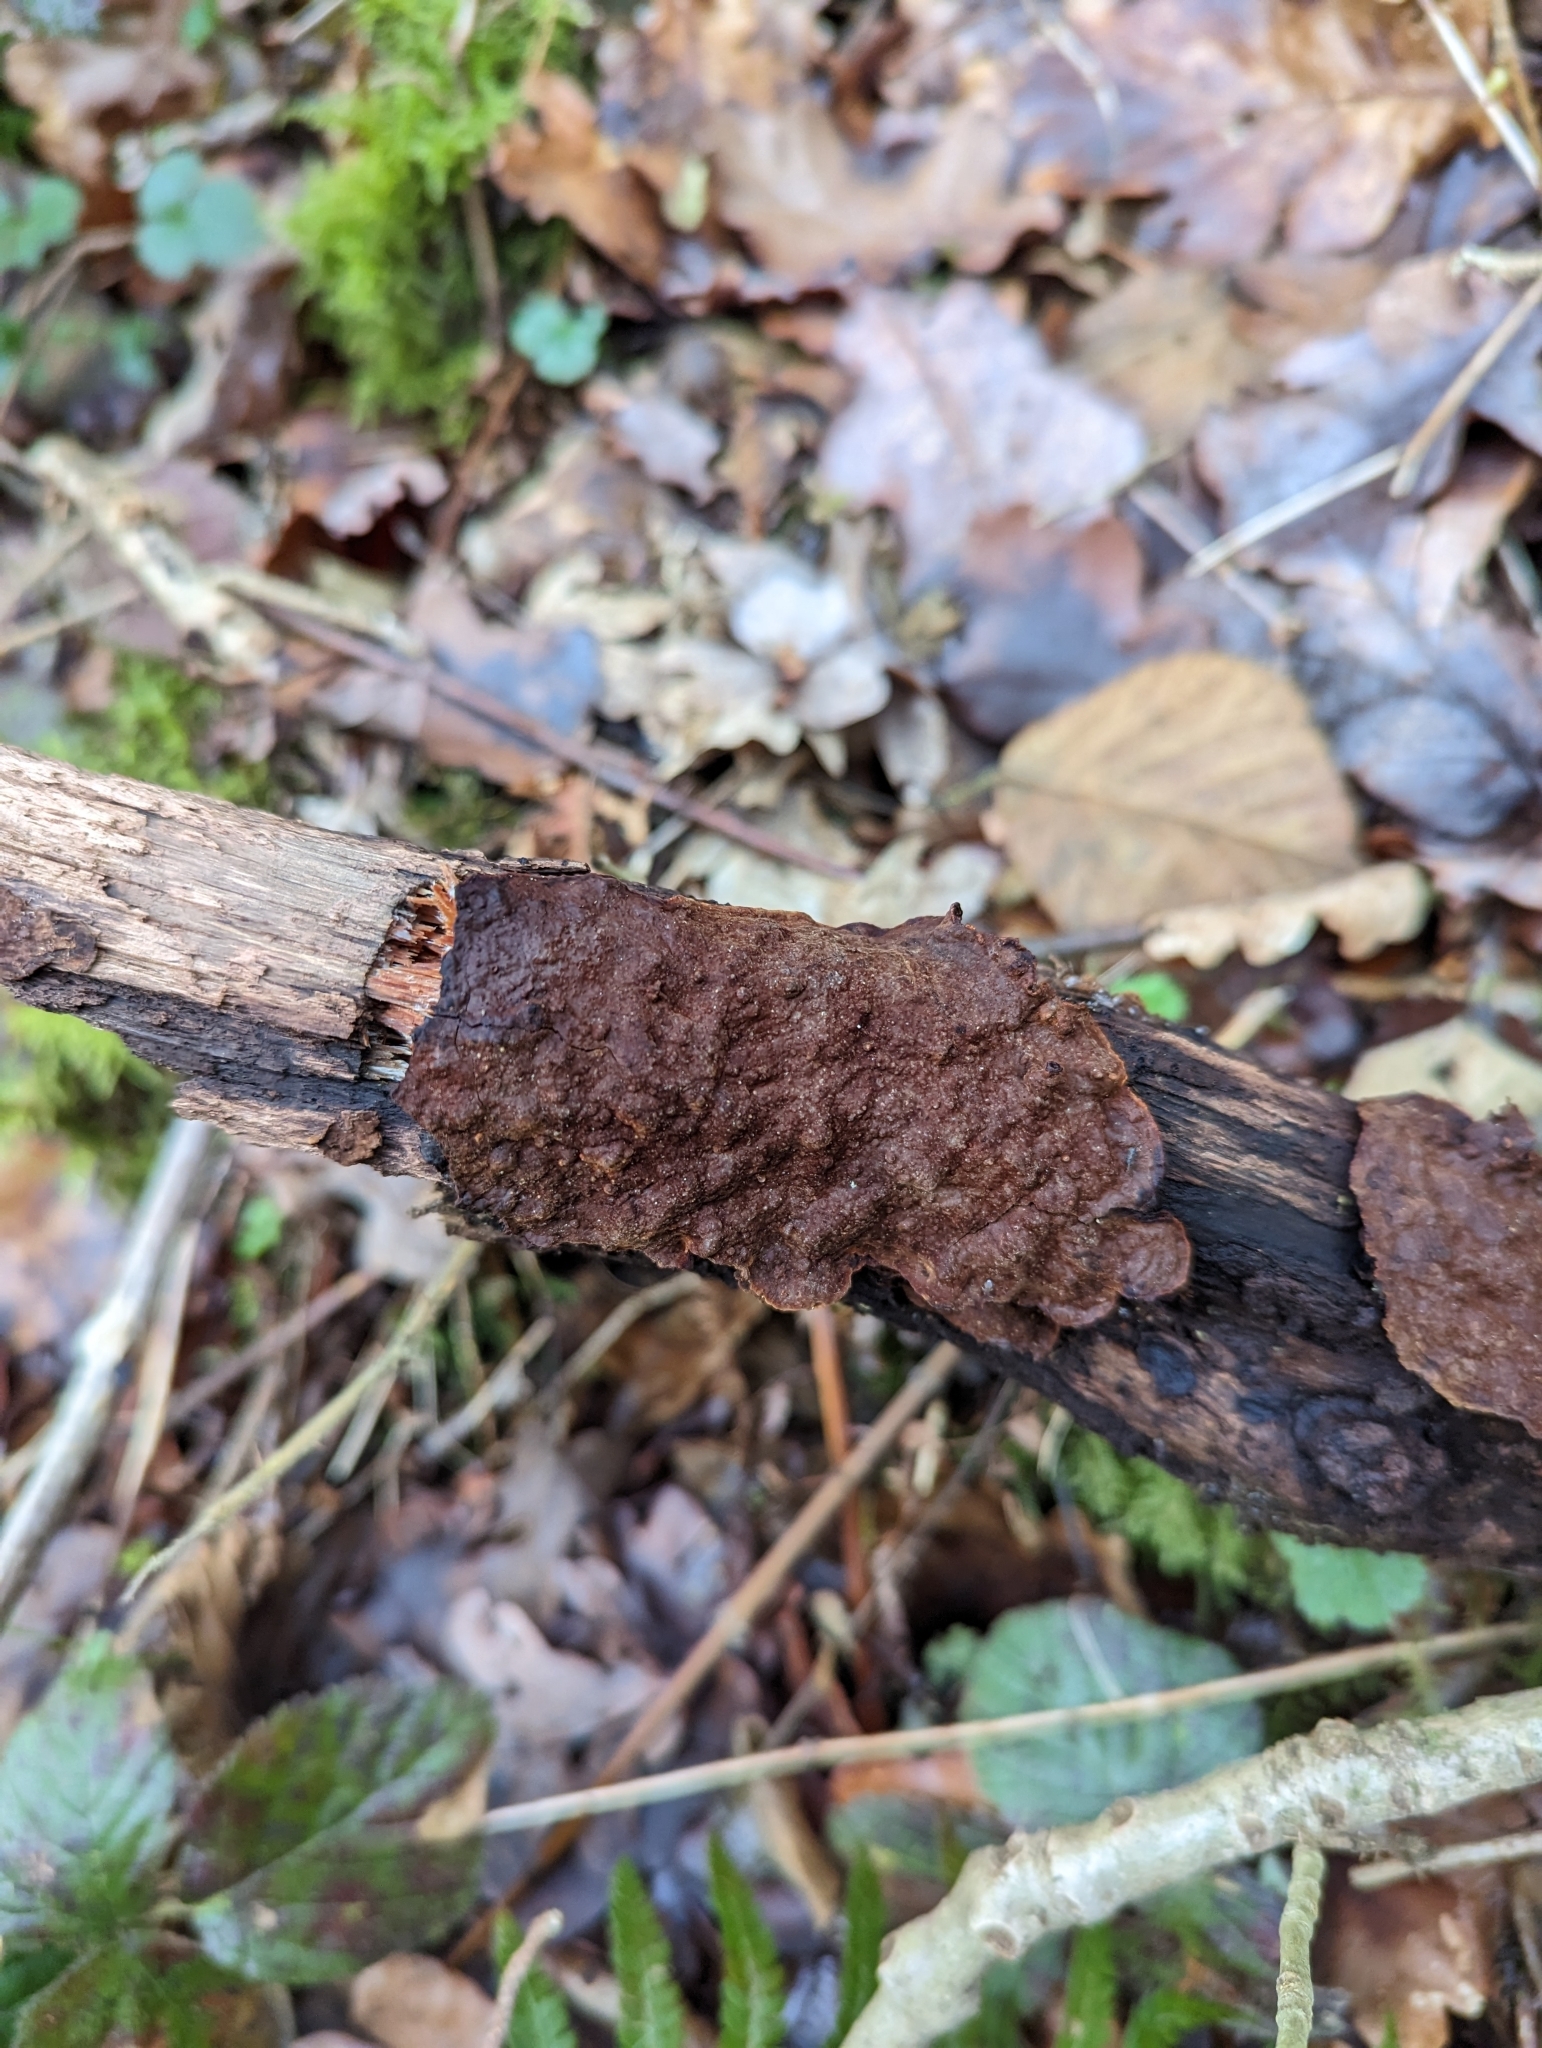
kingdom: Fungi
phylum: Basidiomycota
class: Agaricomycetes
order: Hymenochaetales
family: Hymenochaetaceae
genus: Hymenochaete
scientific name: Hymenochaete rubiginosa
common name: Oak curtain crust
